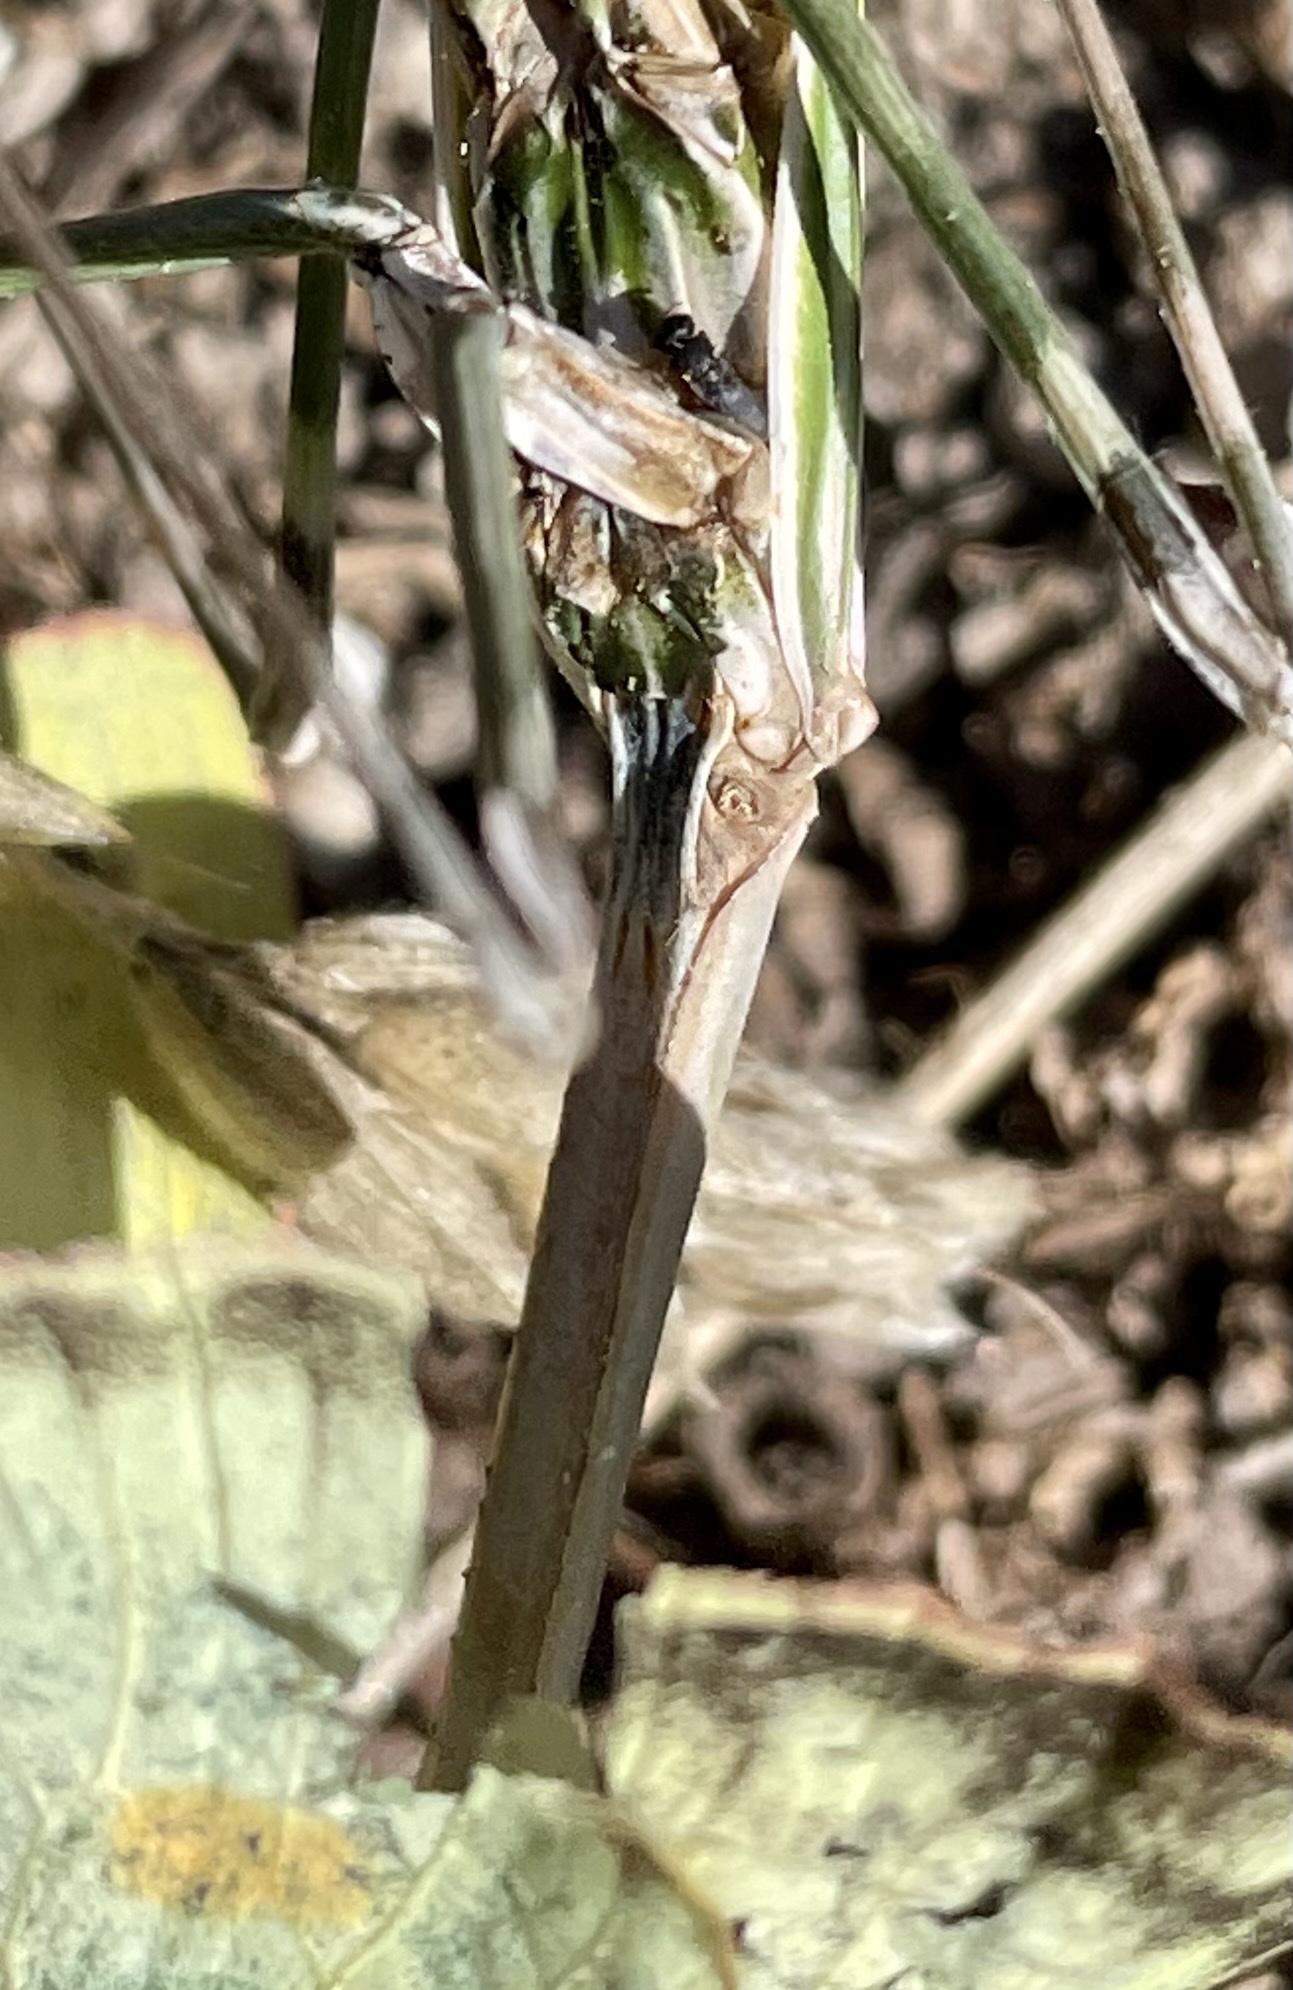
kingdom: Animalia
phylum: Arthropoda
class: Insecta
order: Mantodea
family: Empusidae
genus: Empusa
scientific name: Empusa pennata
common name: Conehead mantis
